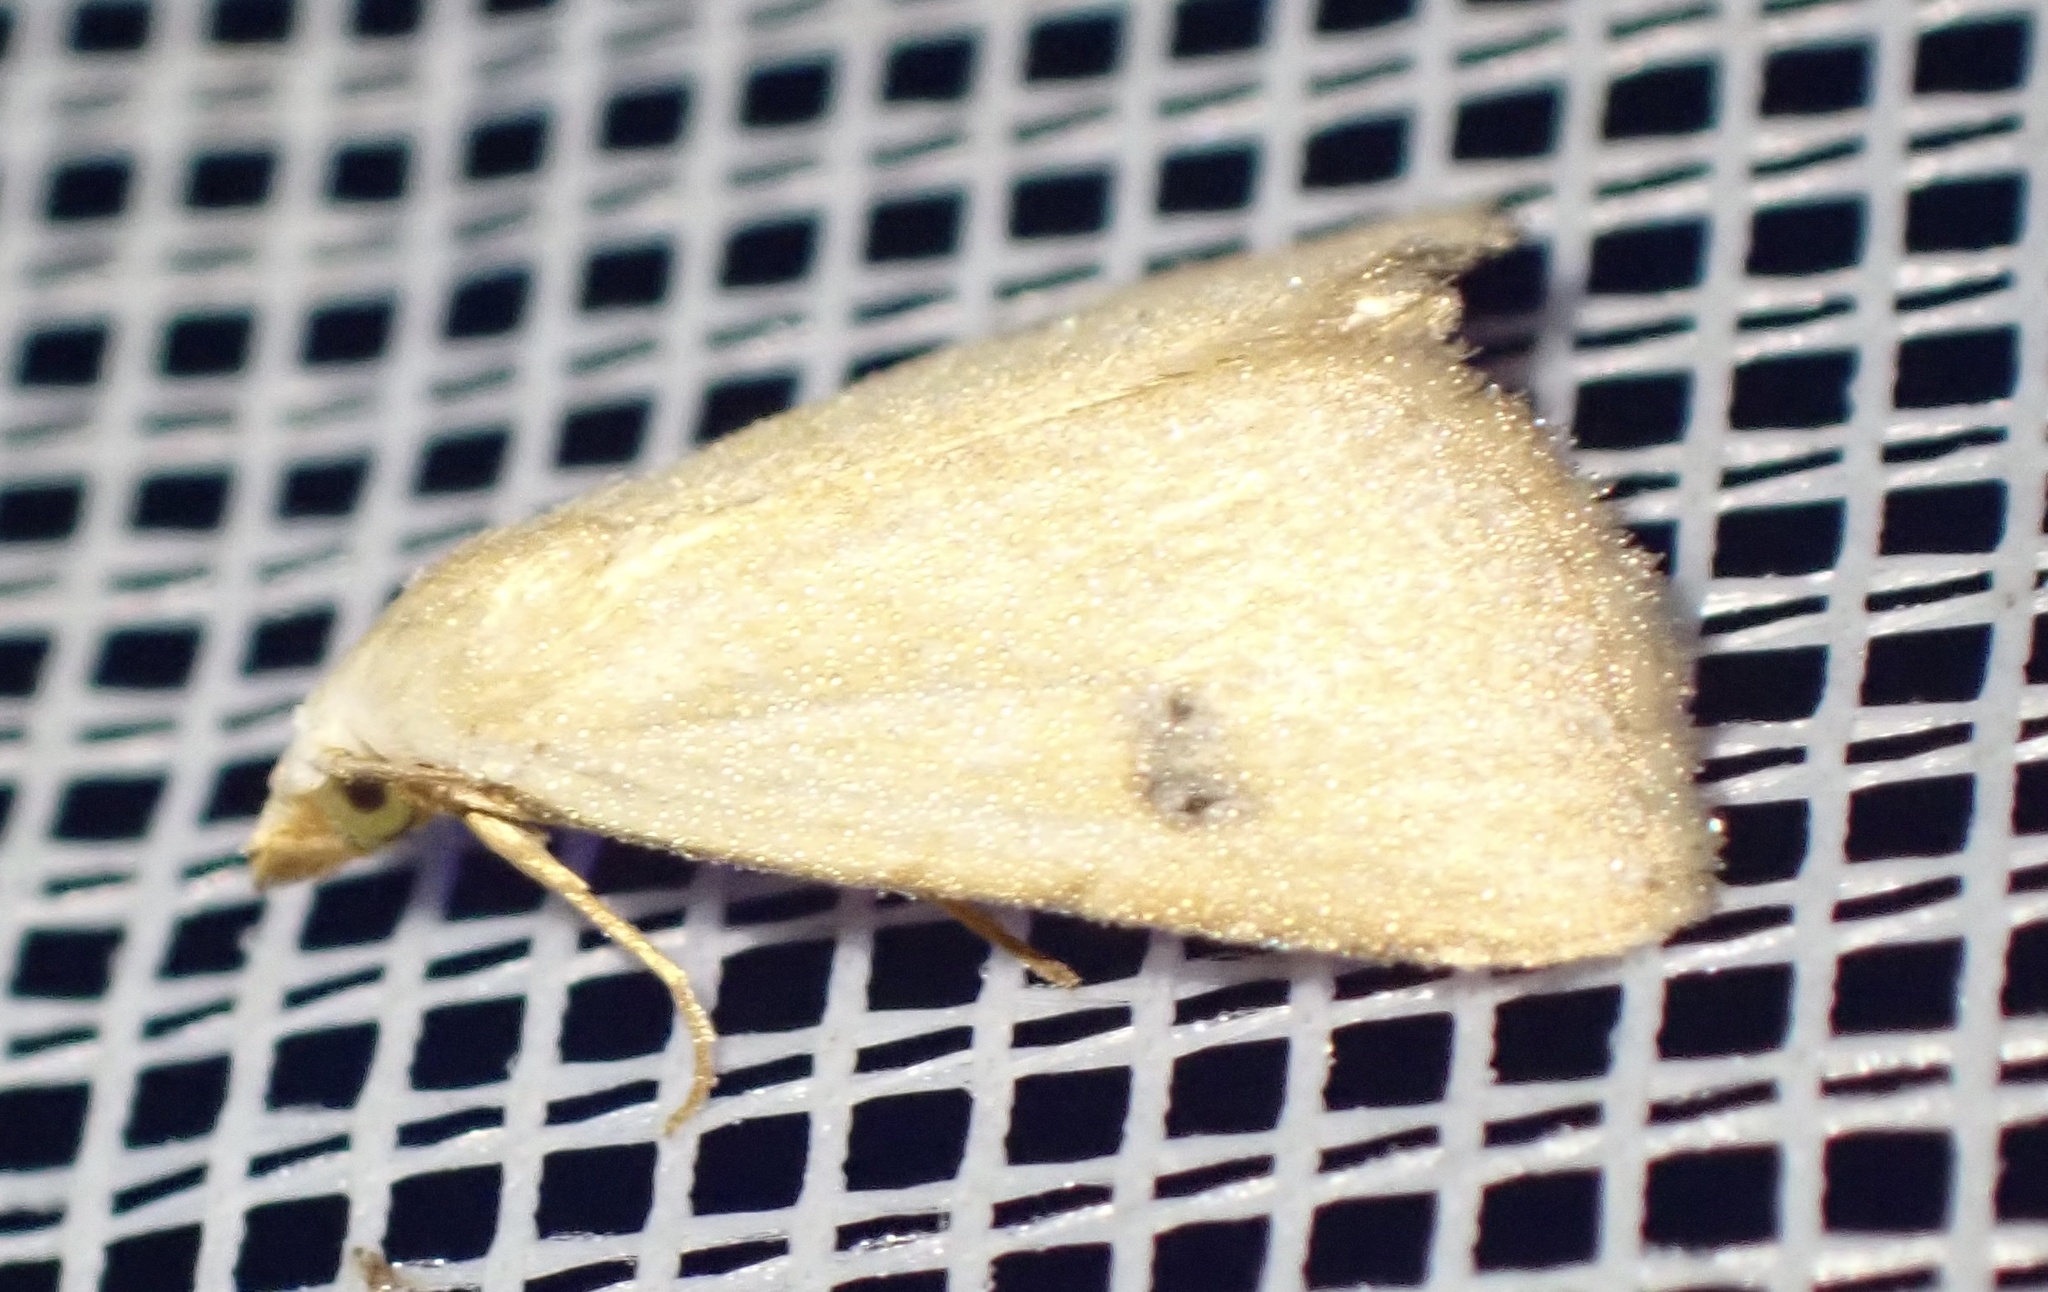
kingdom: Animalia
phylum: Arthropoda
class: Insecta
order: Lepidoptera
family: Erebidae
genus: Rivula
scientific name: Rivula sericealis
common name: Straw dot
